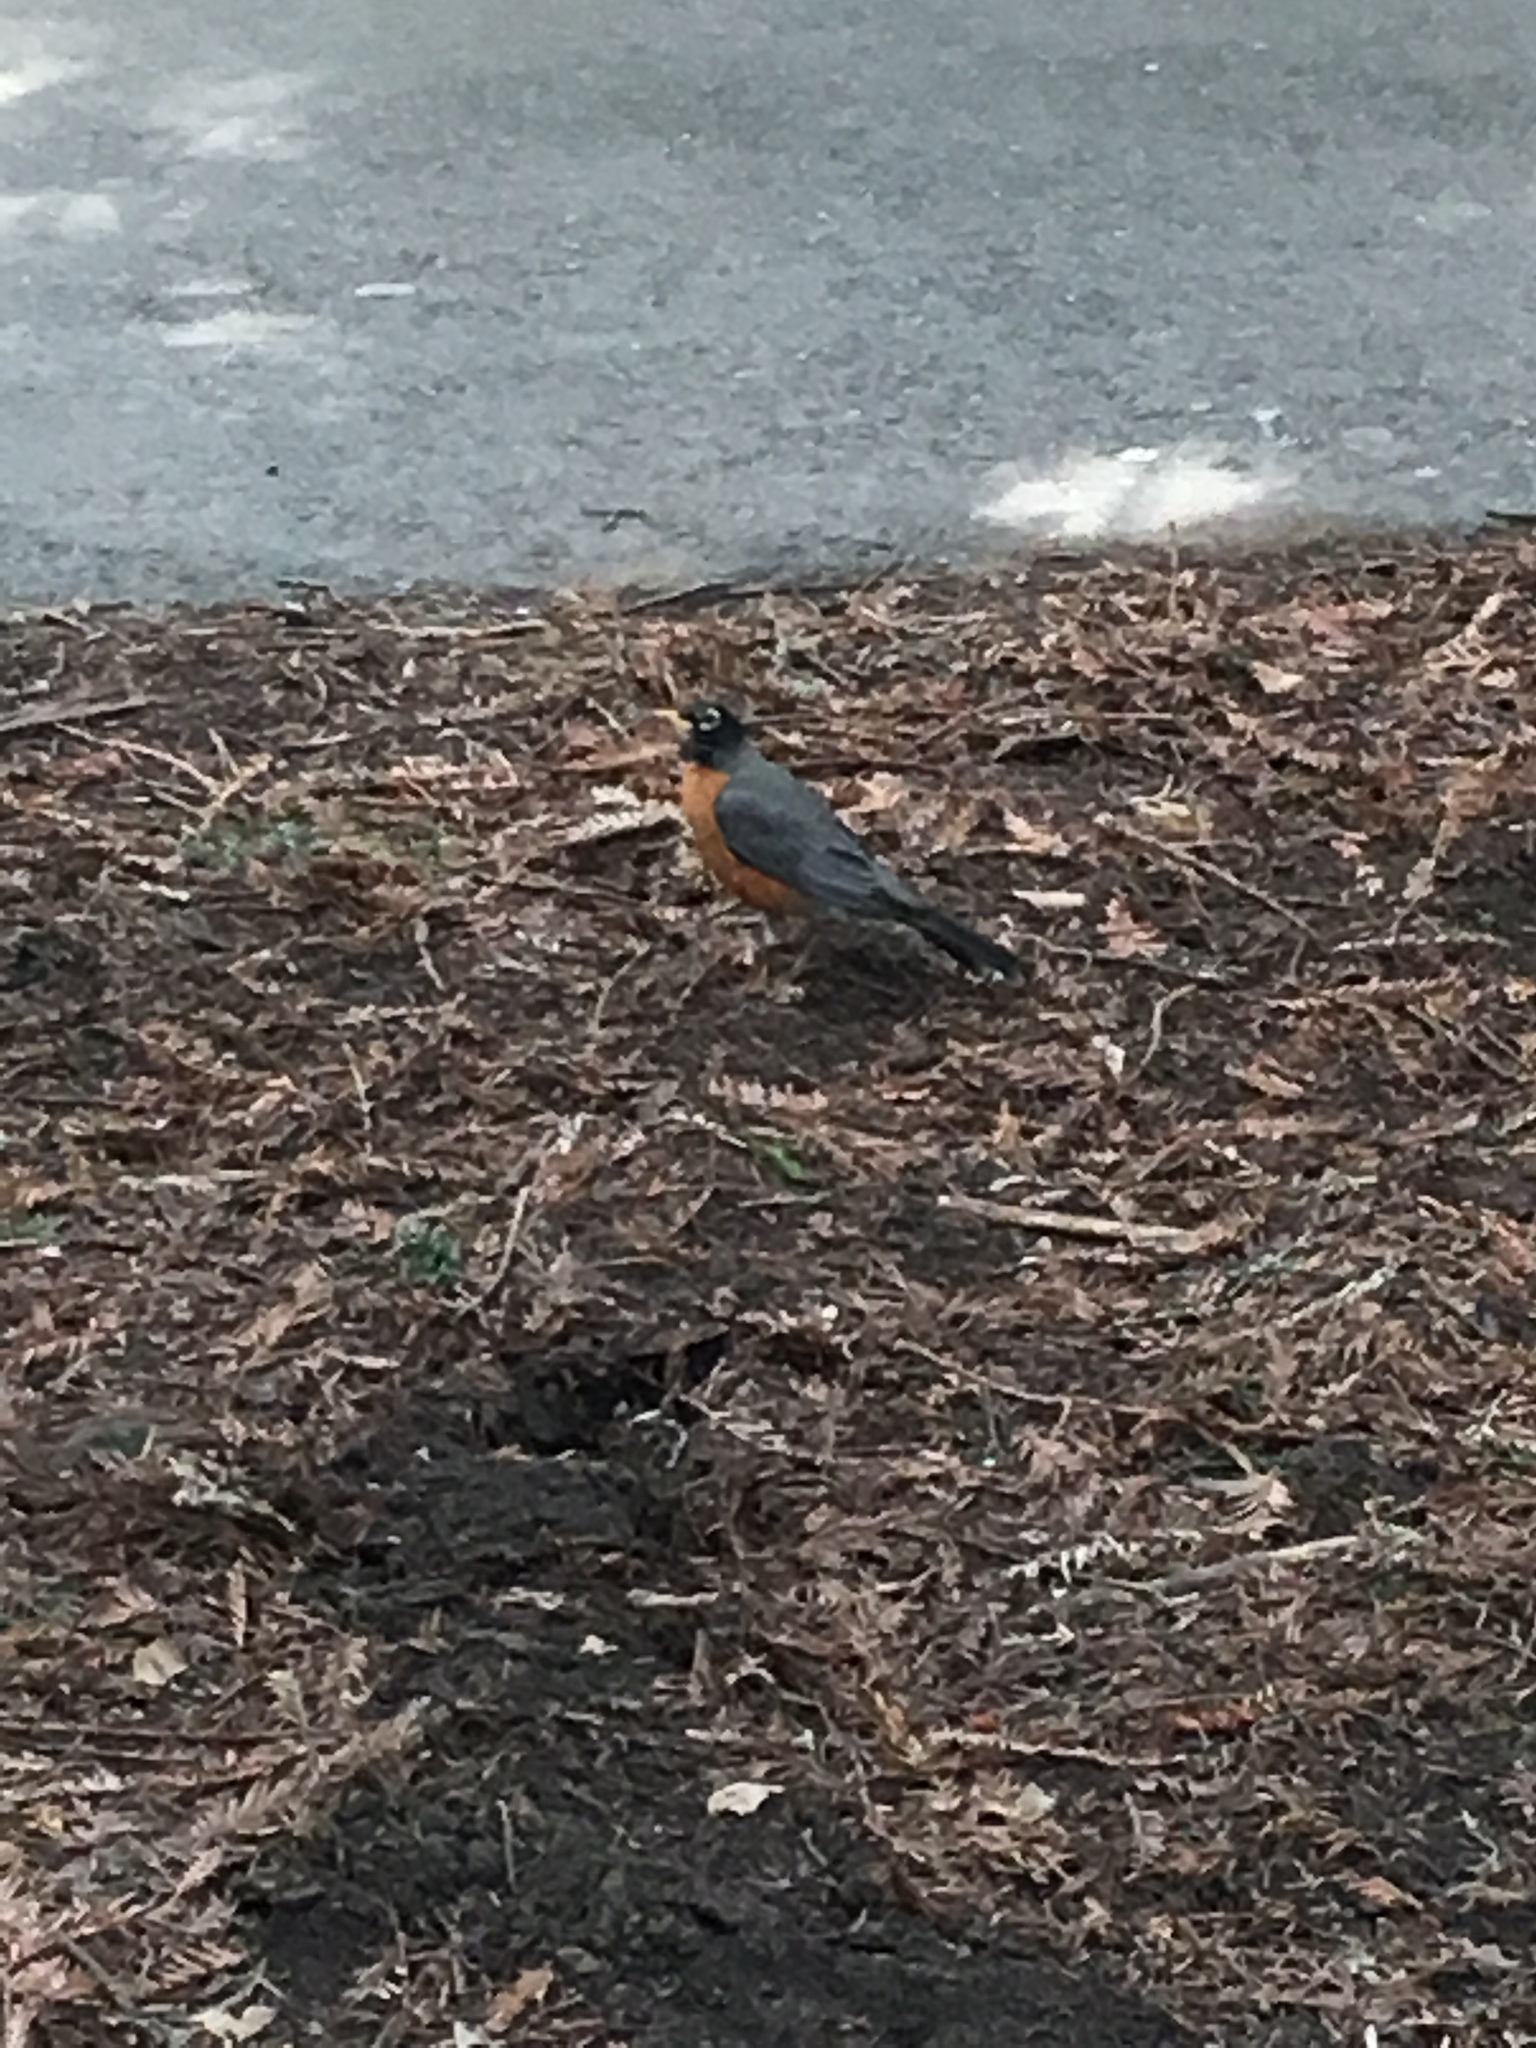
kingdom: Animalia
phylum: Chordata
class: Aves
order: Passeriformes
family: Turdidae
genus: Turdus
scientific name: Turdus migratorius
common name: American robin
